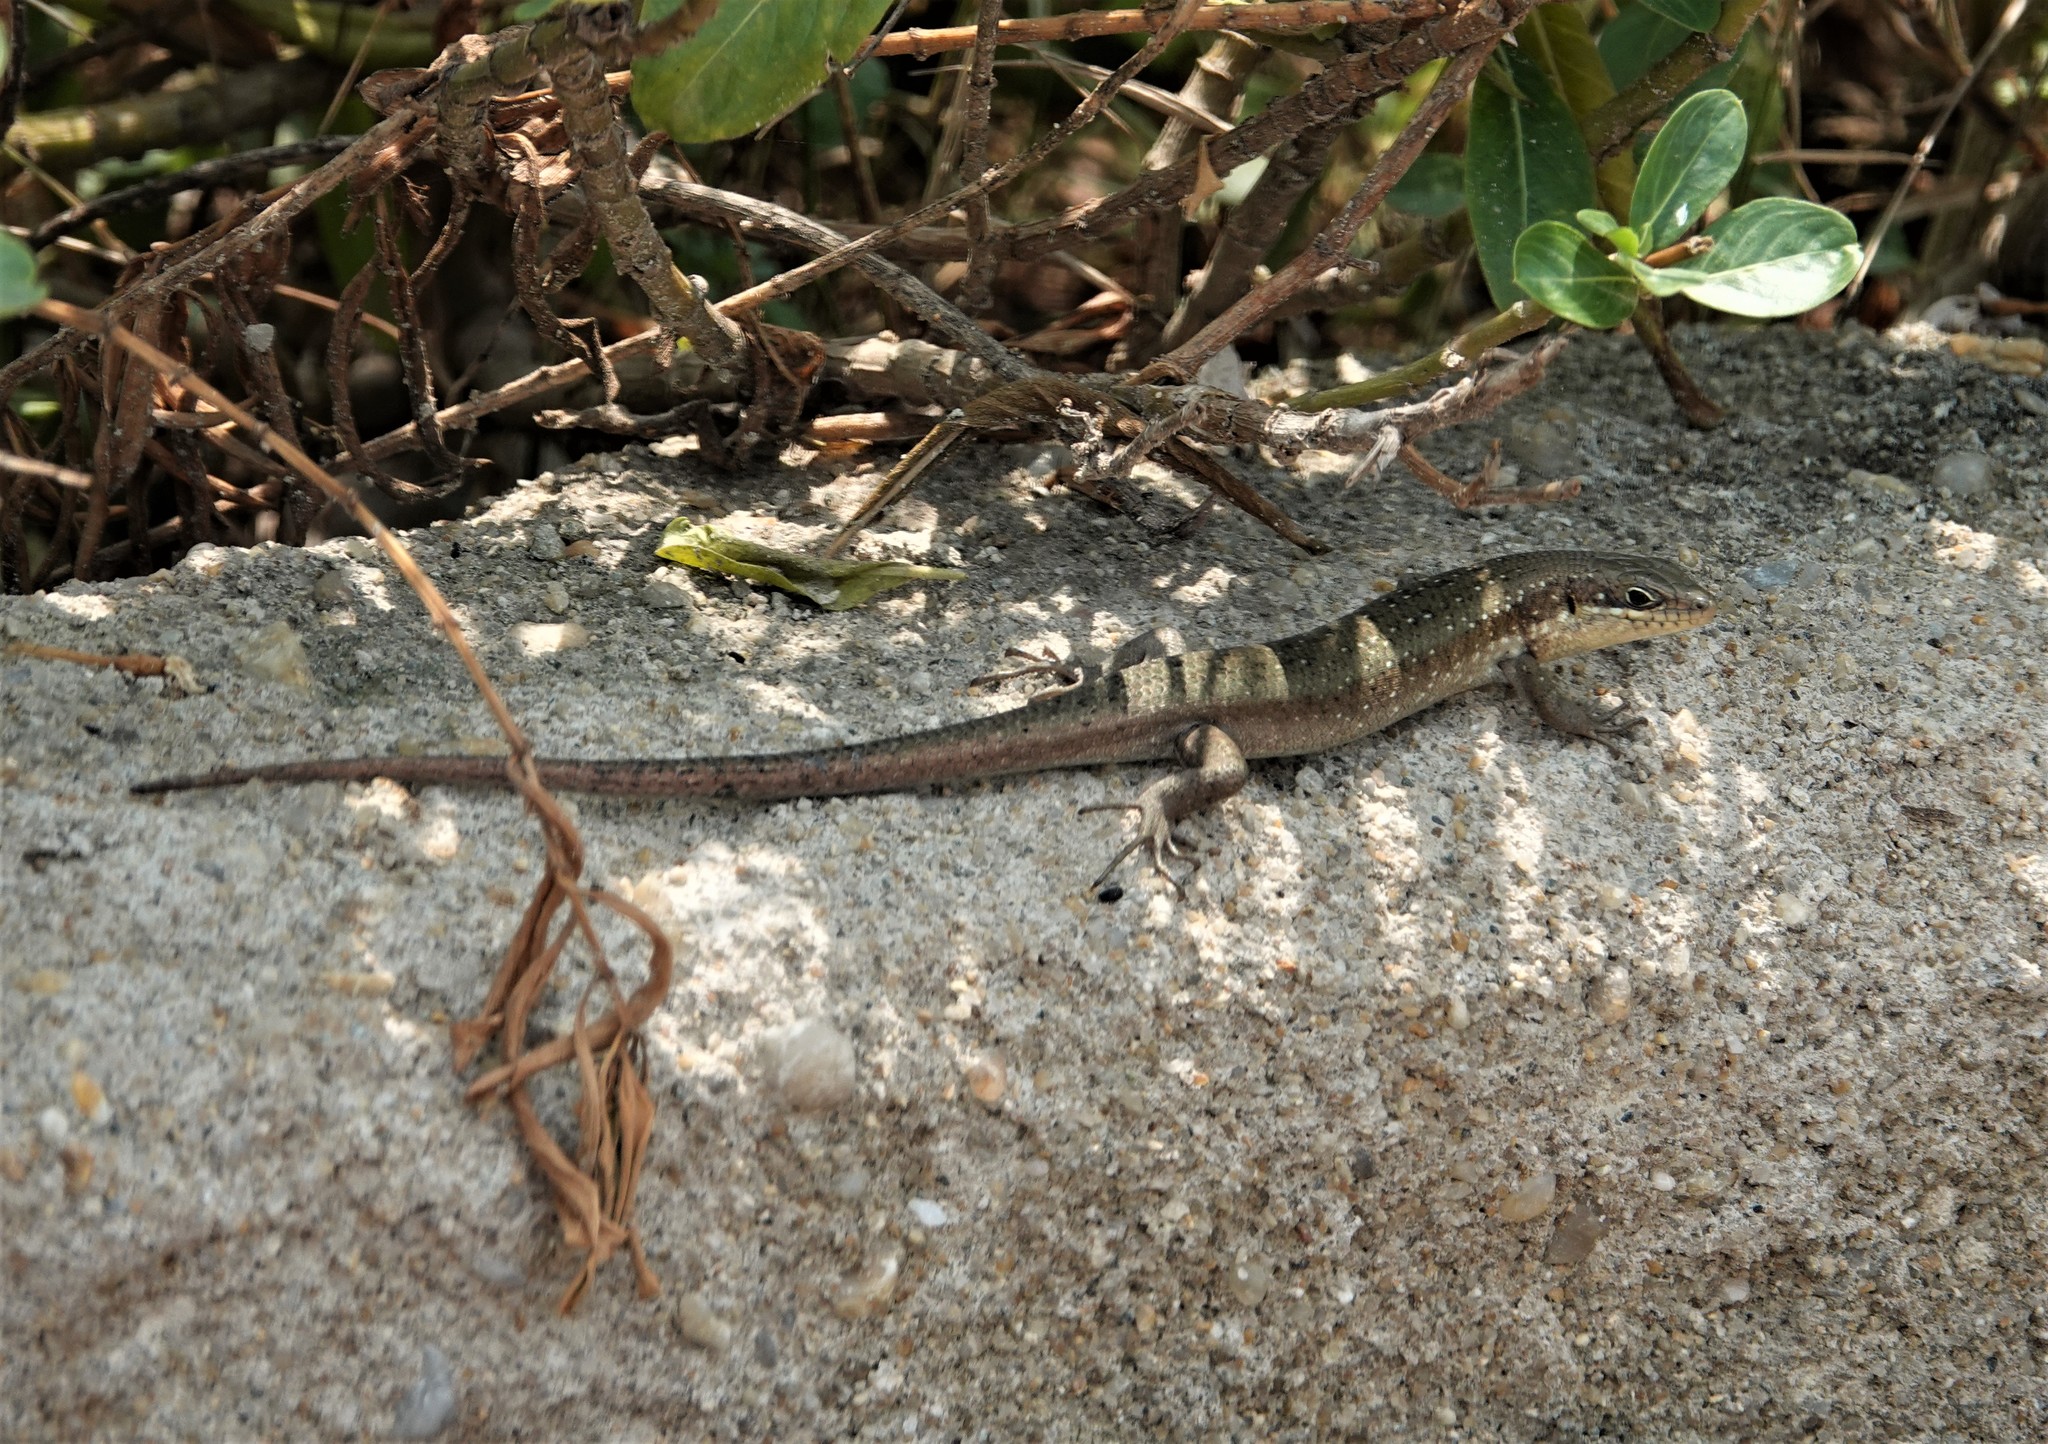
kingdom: Animalia
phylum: Chordata
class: Squamata
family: Scincidae
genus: Trachylepis
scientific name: Trachylepis maculilabris
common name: Speckle-lipped mabuya
